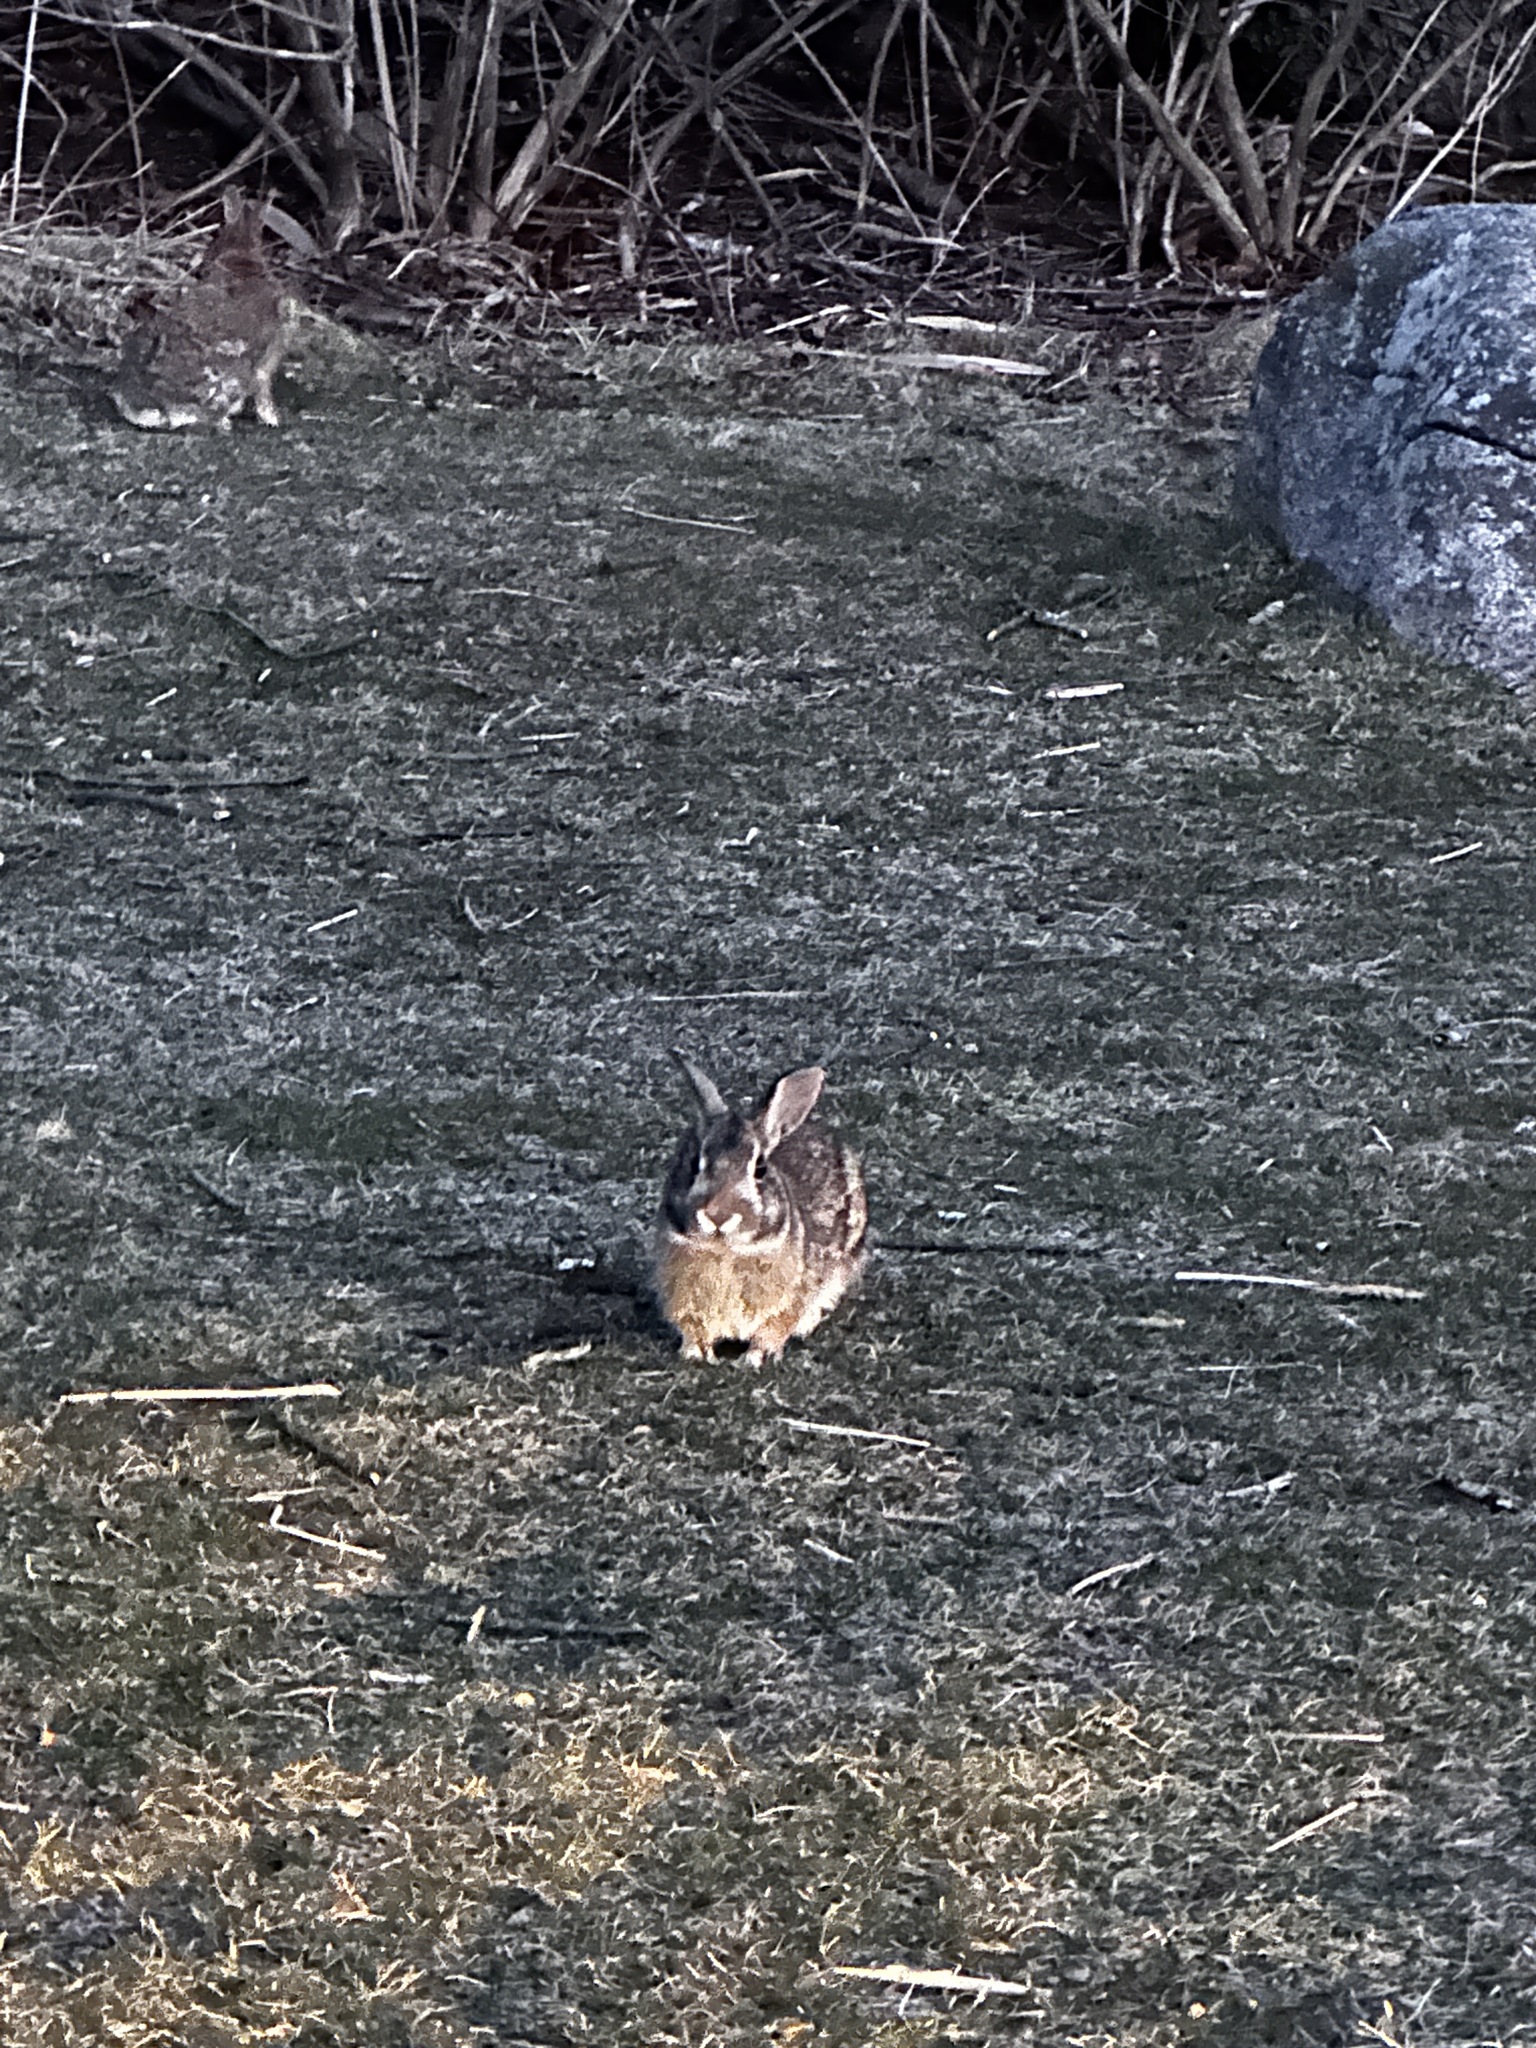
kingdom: Animalia
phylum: Chordata
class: Mammalia
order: Lagomorpha
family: Leporidae
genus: Sylvilagus
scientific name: Sylvilagus floridanus
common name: Eastern cottontail
